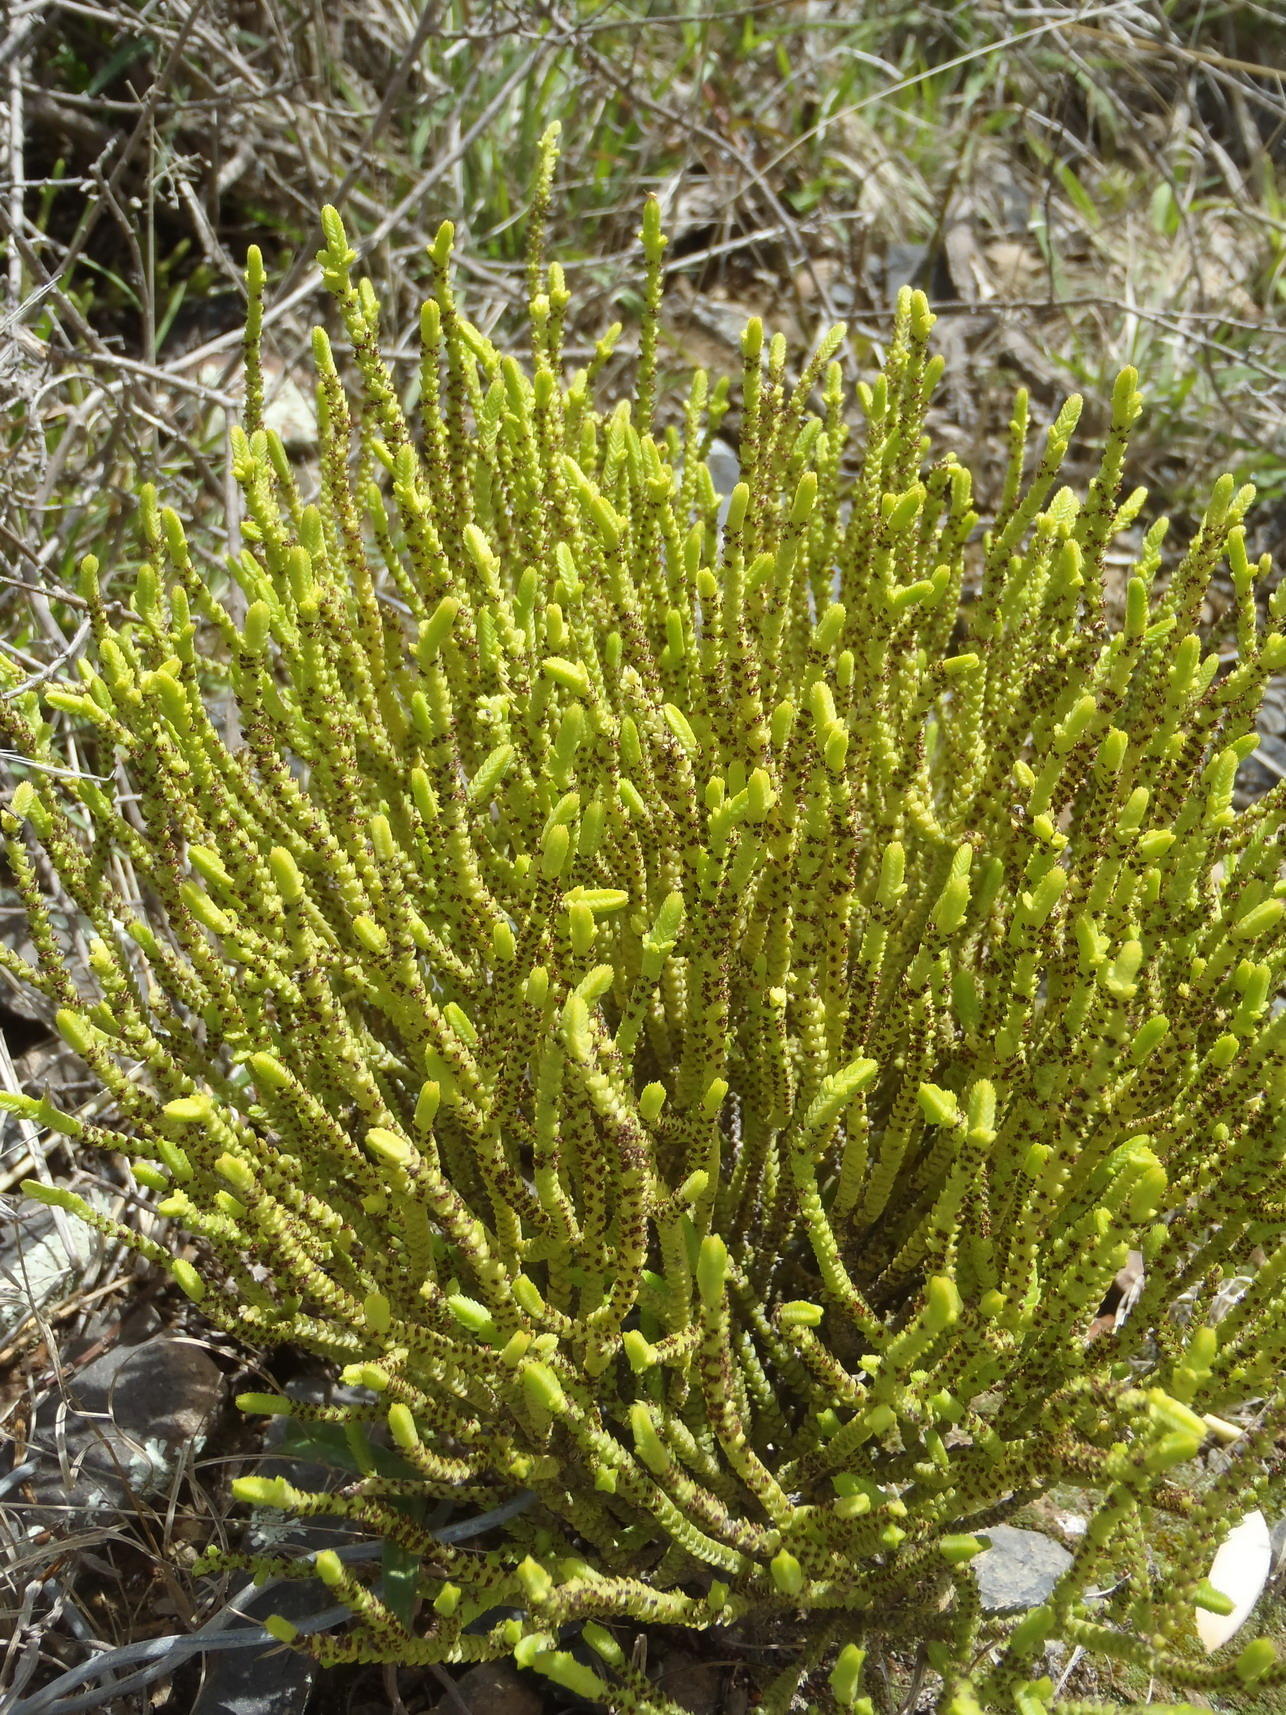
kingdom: Plantae
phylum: Tracheophyta
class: Magnoliopsida
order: Saxifragales
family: Crassulaceae
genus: Crassula
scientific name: Crassula muscosa
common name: Toy-cypress
